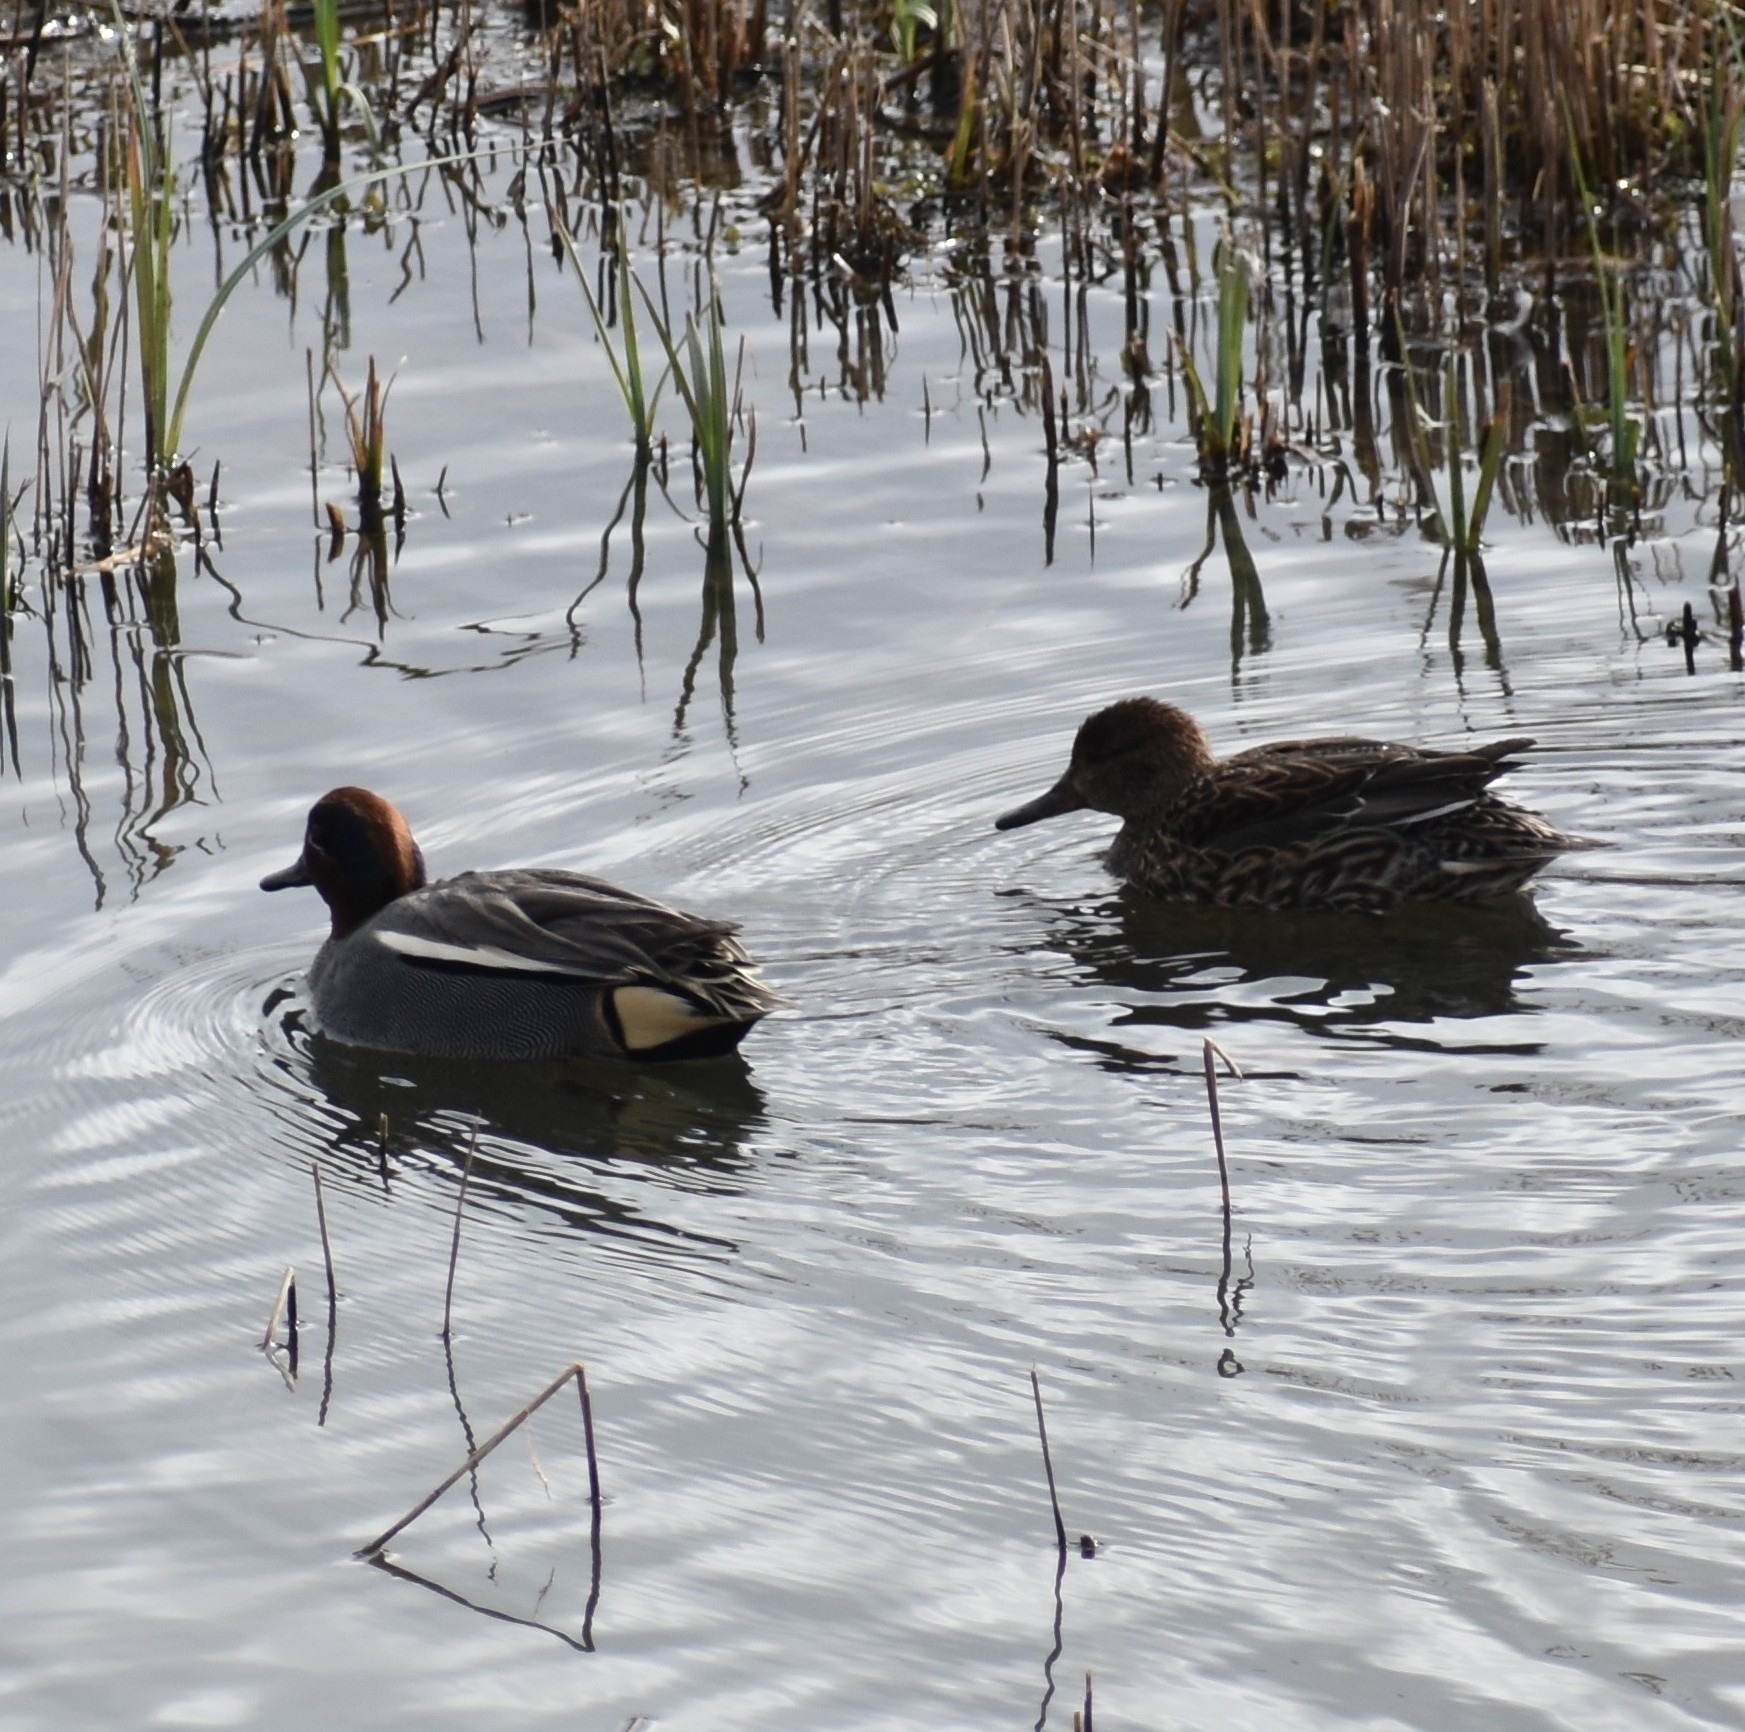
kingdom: Animalia
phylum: Chordata
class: Aves
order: Anseriformes
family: Anatidae
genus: Anas
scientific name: Anas crecca
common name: Eurasian teal
